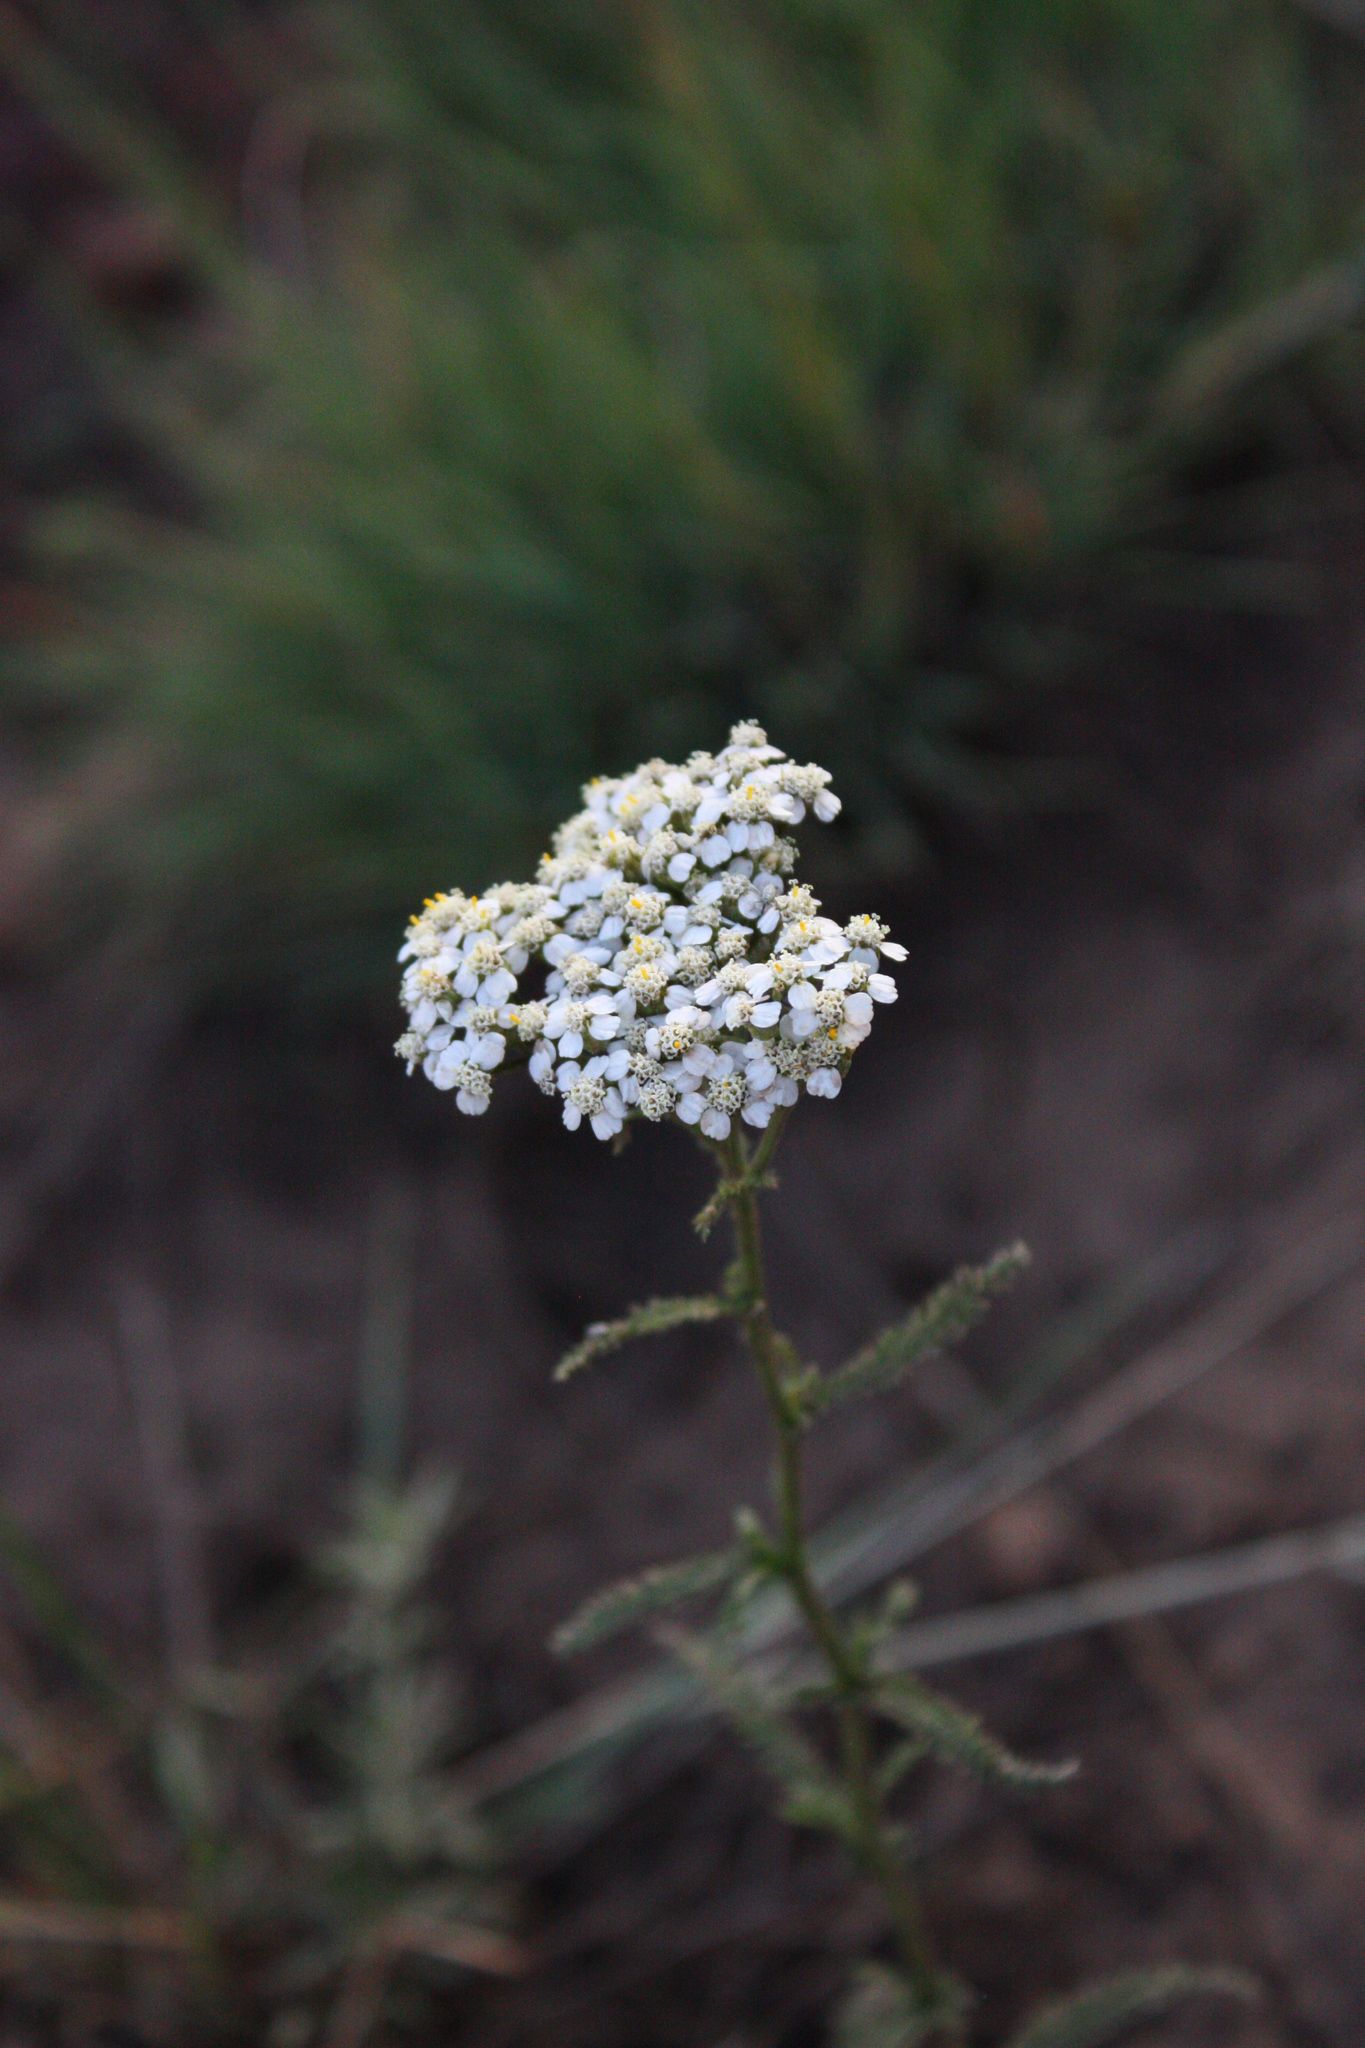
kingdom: Plantae
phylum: Tracheophyta
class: Magnoliopsida
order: Asterales
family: Asteraceae
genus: Achillea
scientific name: Achillea millefolium
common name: Yarrow
